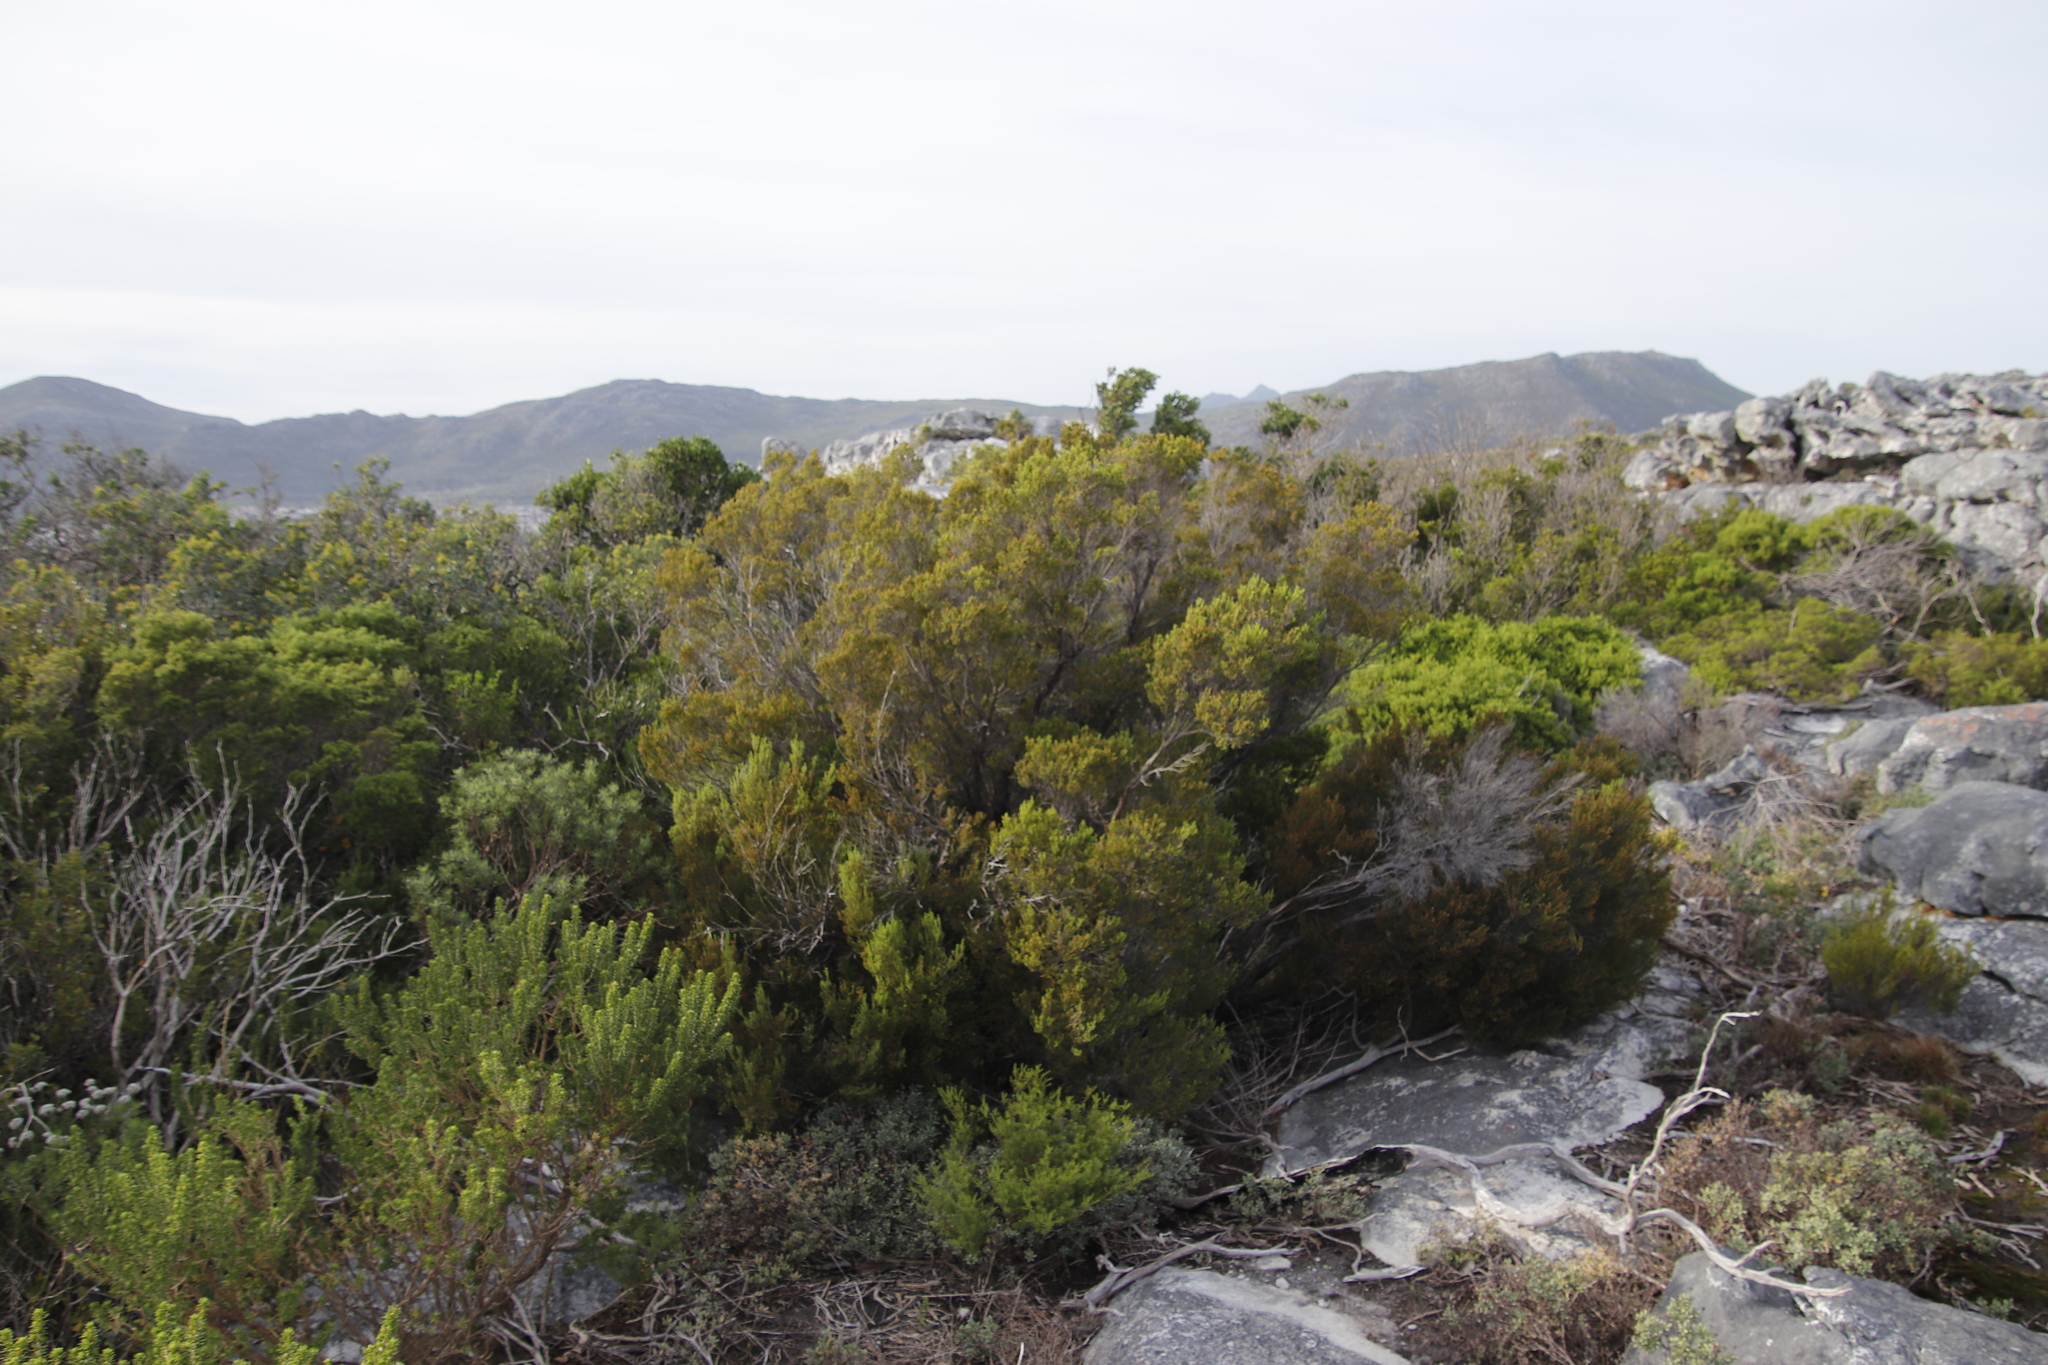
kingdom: Plantae
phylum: Tracheophyta
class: Magnoliopsida
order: Ericales
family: Ericaceae
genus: Erica
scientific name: Erica tristis
